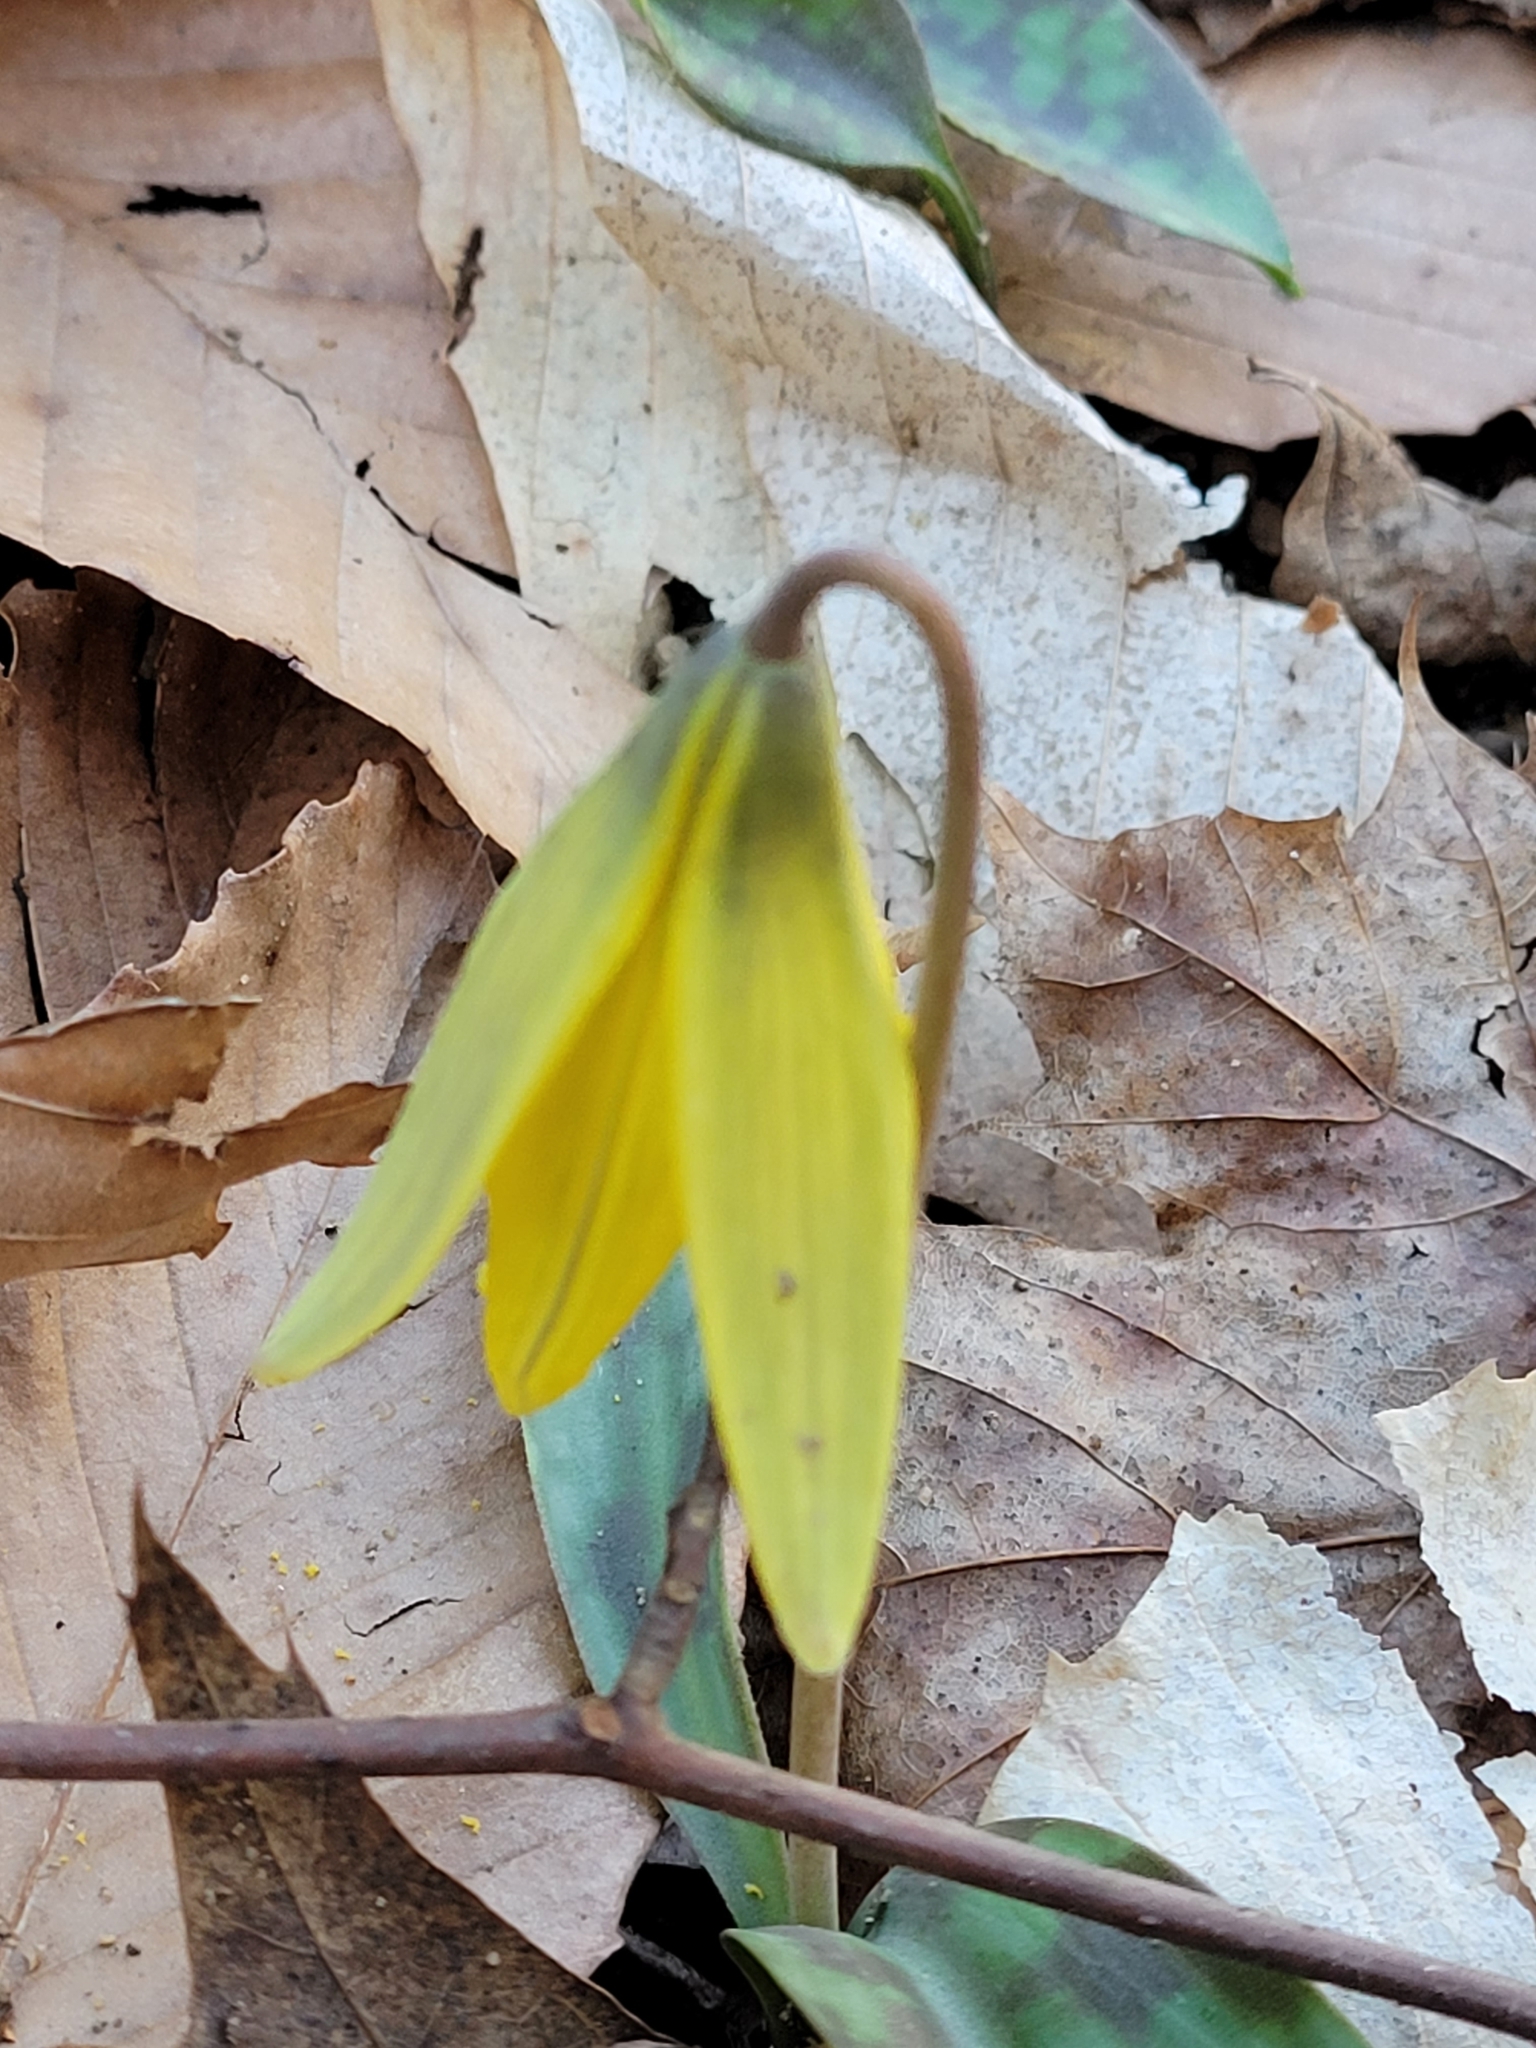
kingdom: Plantae
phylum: Tracheophyta
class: Liliopsida
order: Liliales
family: Liliaceae
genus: Erythronium
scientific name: Erythronium americanum
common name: Yellow adder's-tongue
